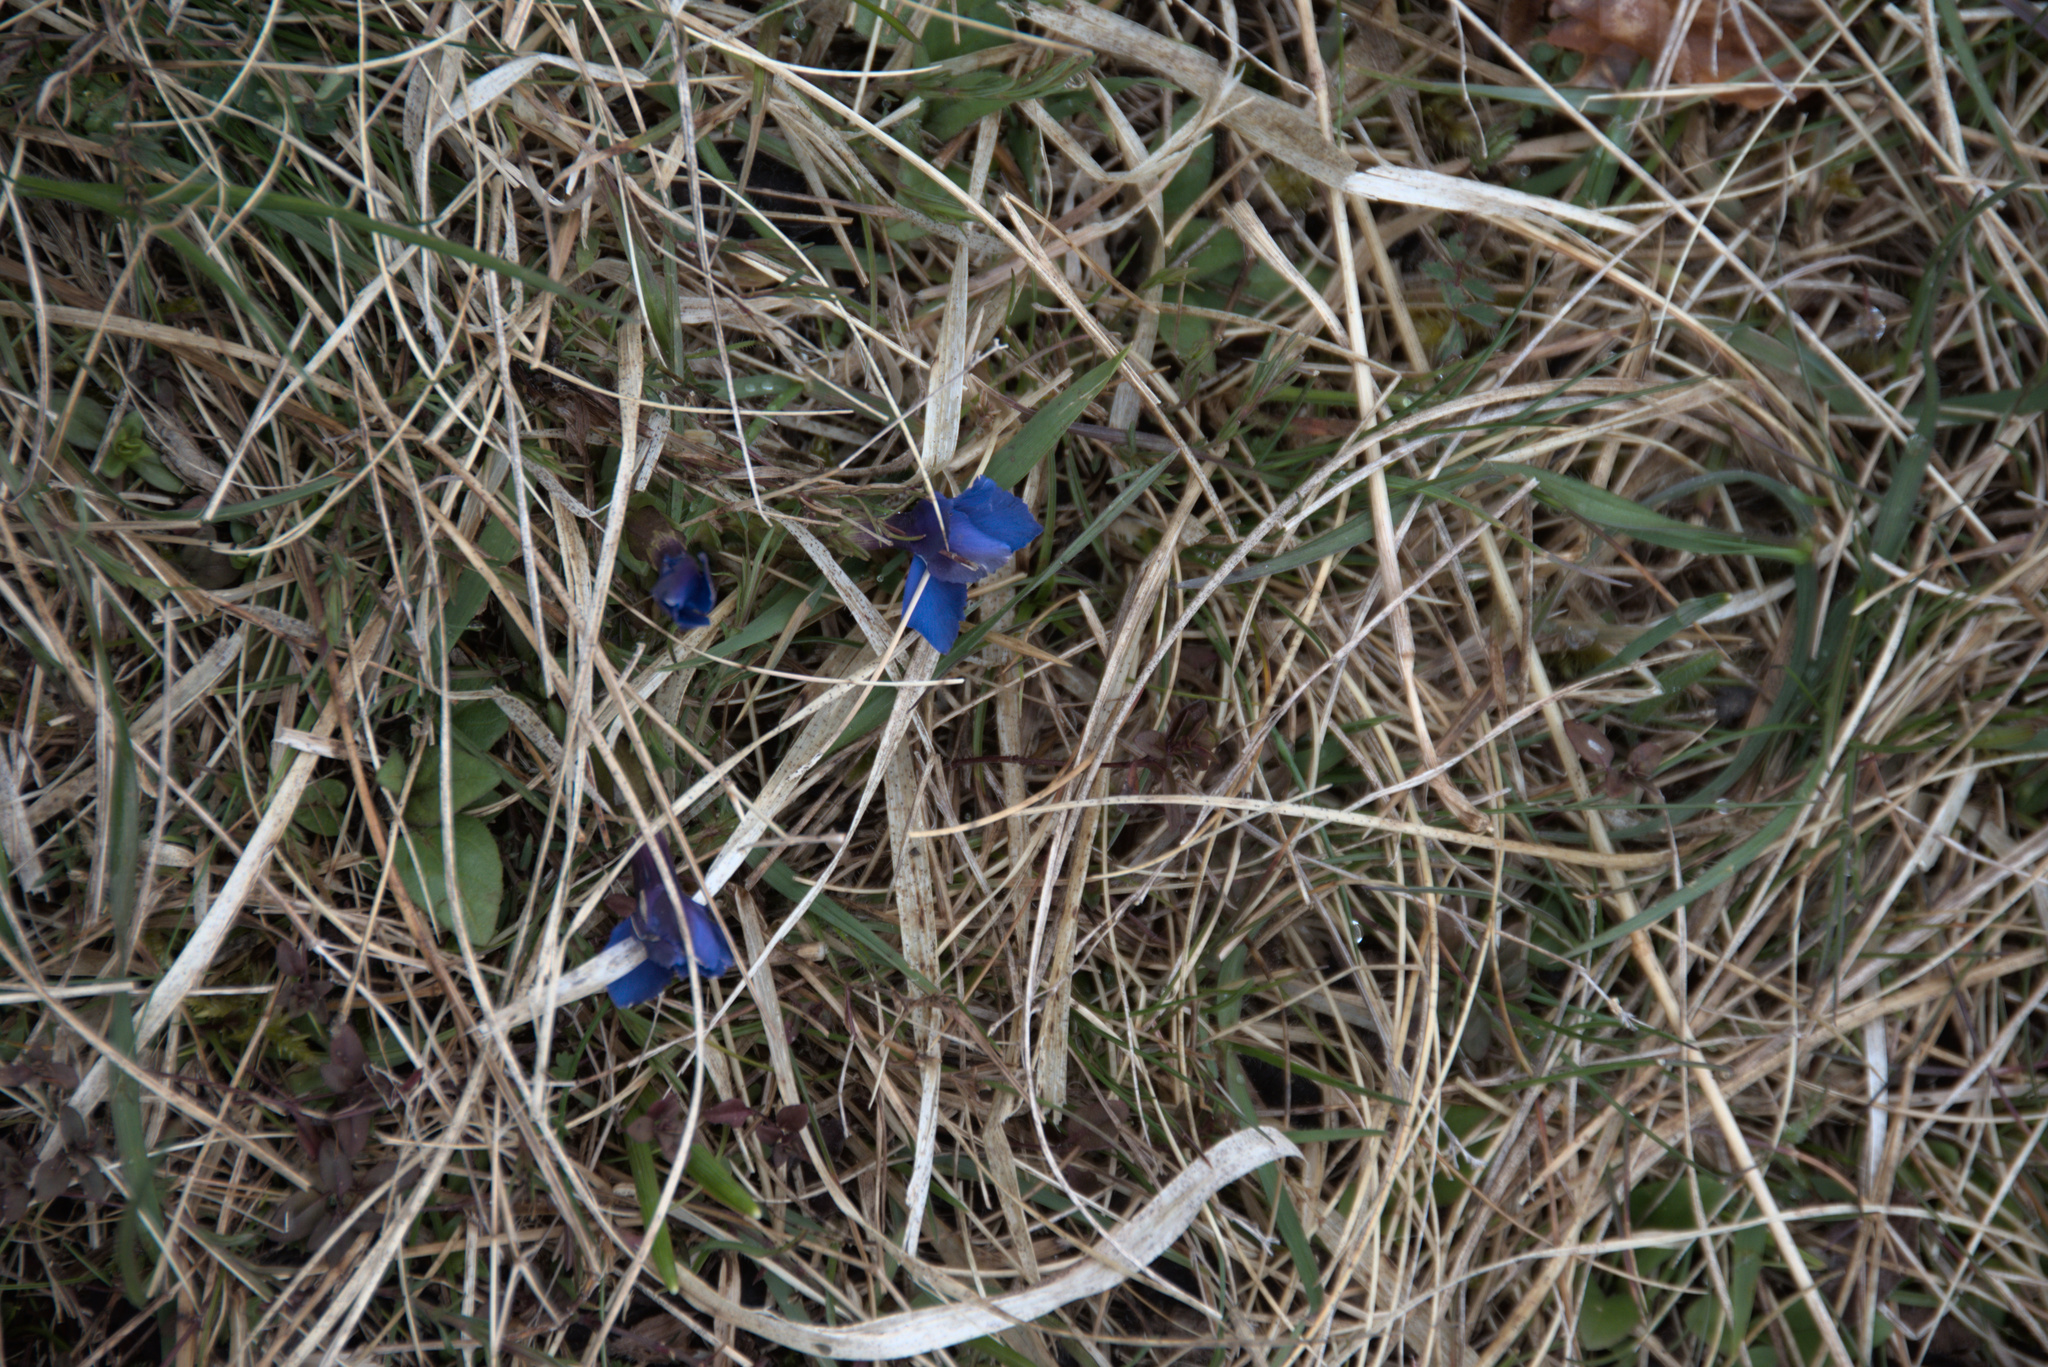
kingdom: Plantae
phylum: Tracheophyta
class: Magnoliopsida
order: Gentianales
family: Gentianaceae
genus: Gentiana
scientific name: Gentiana verna
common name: Spring gentian
